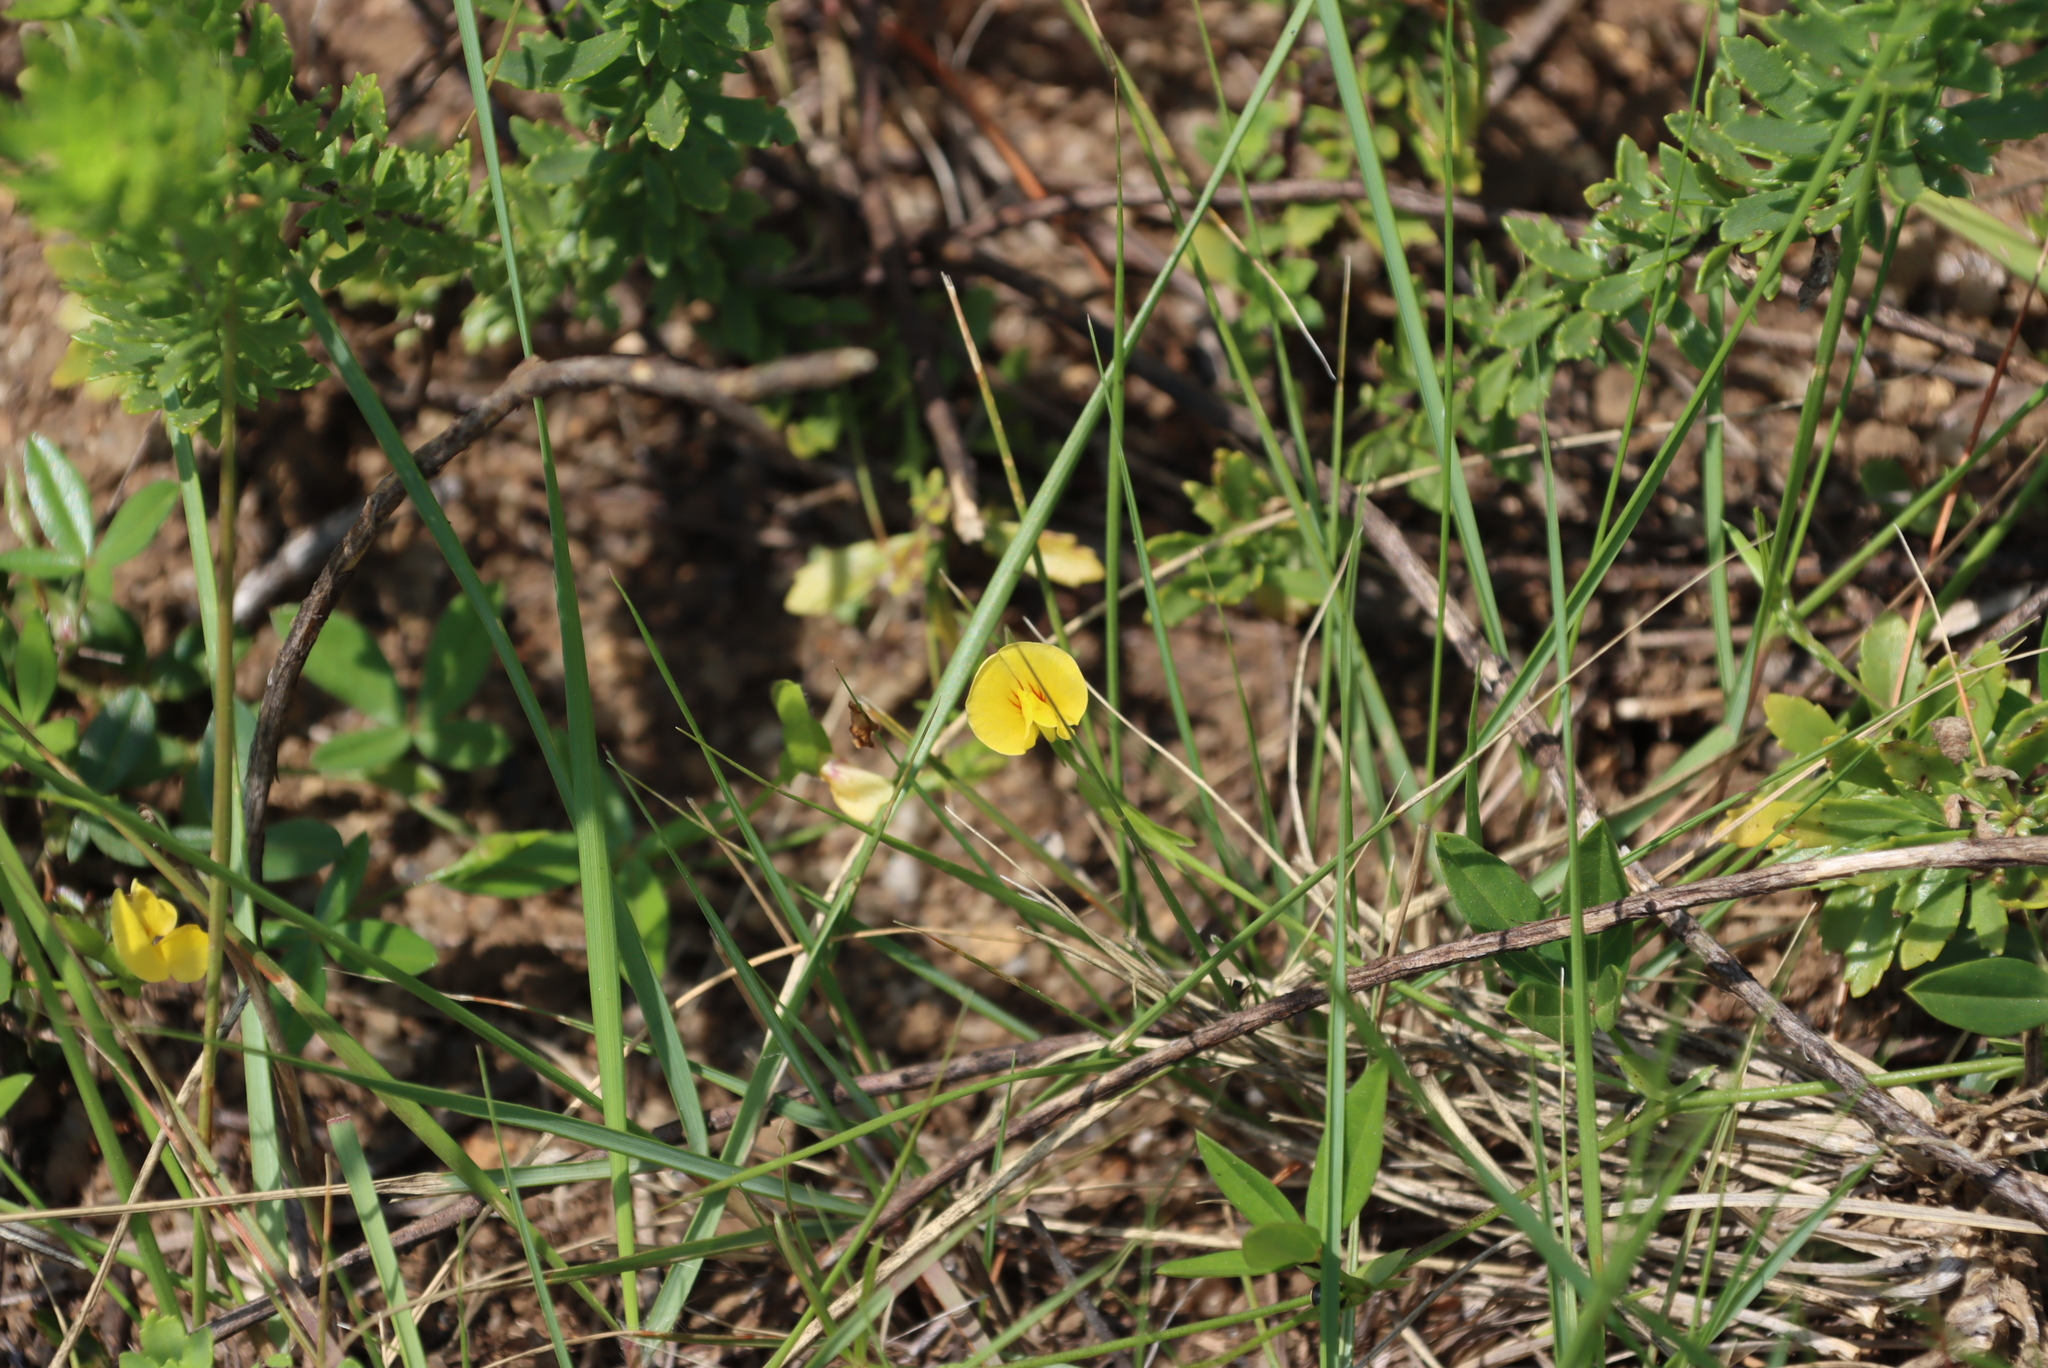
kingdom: Plantae
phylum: Tracheophyta
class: Magnoliopsida
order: Fabales
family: Fabaceae
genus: Zornia
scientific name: Zornia capensis
